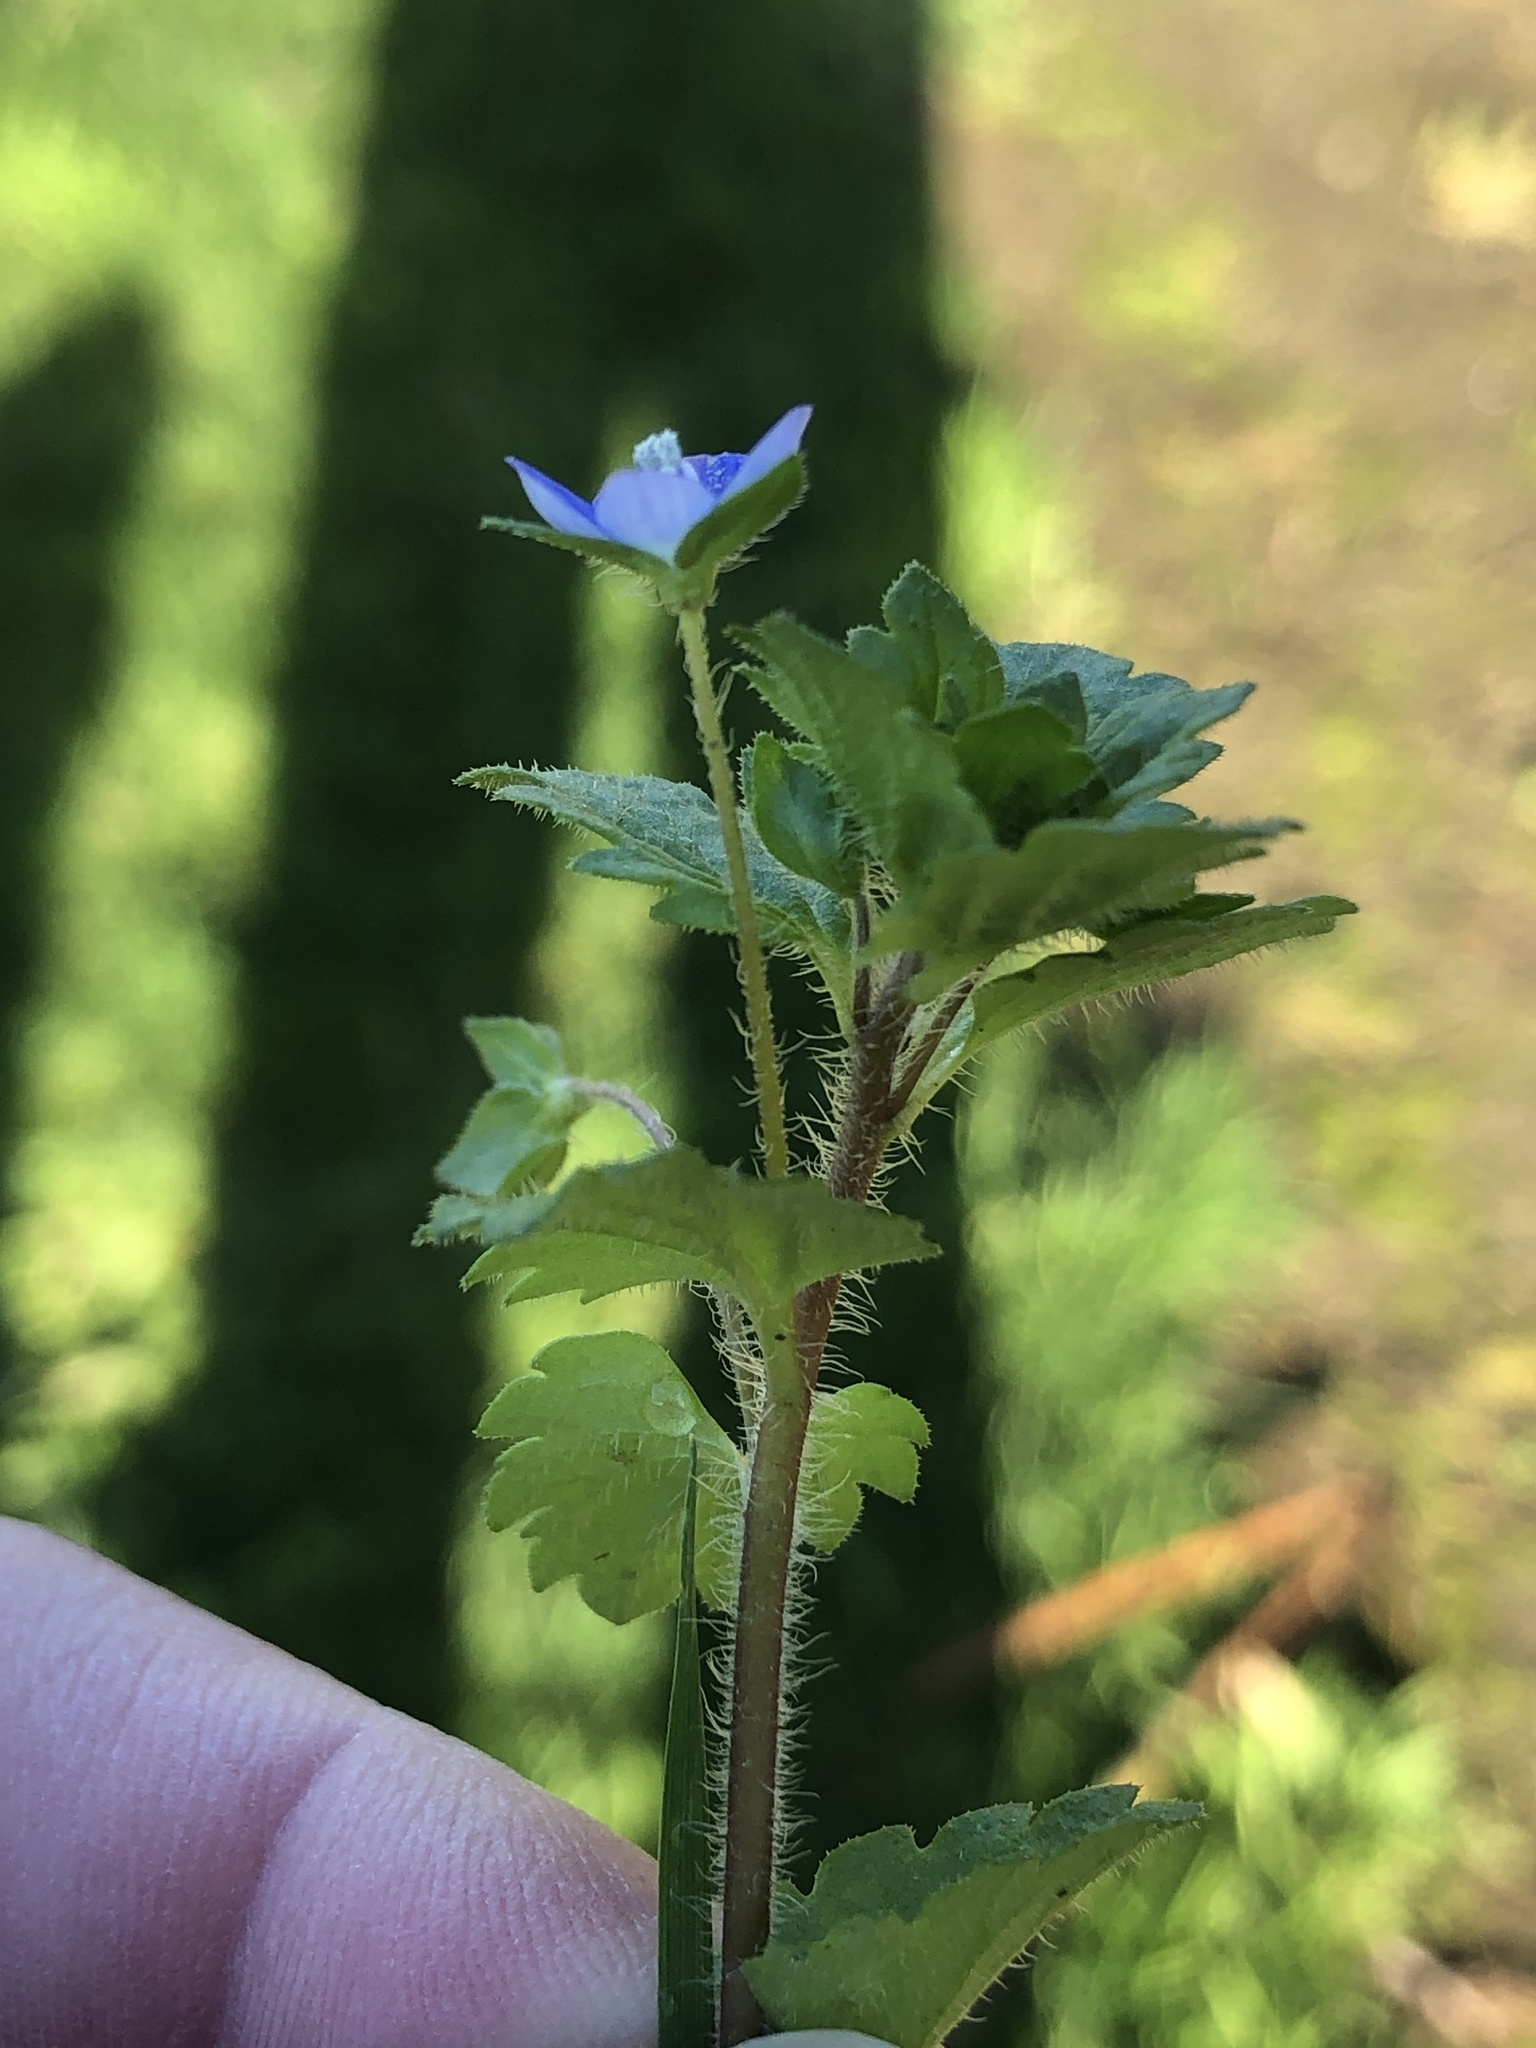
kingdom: Plantae
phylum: Tracheophyta
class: Magnoliopsida
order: Lamiales
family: Plantaginaceae
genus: Veronica
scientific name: Veronica persica
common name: Common field-speedwell
